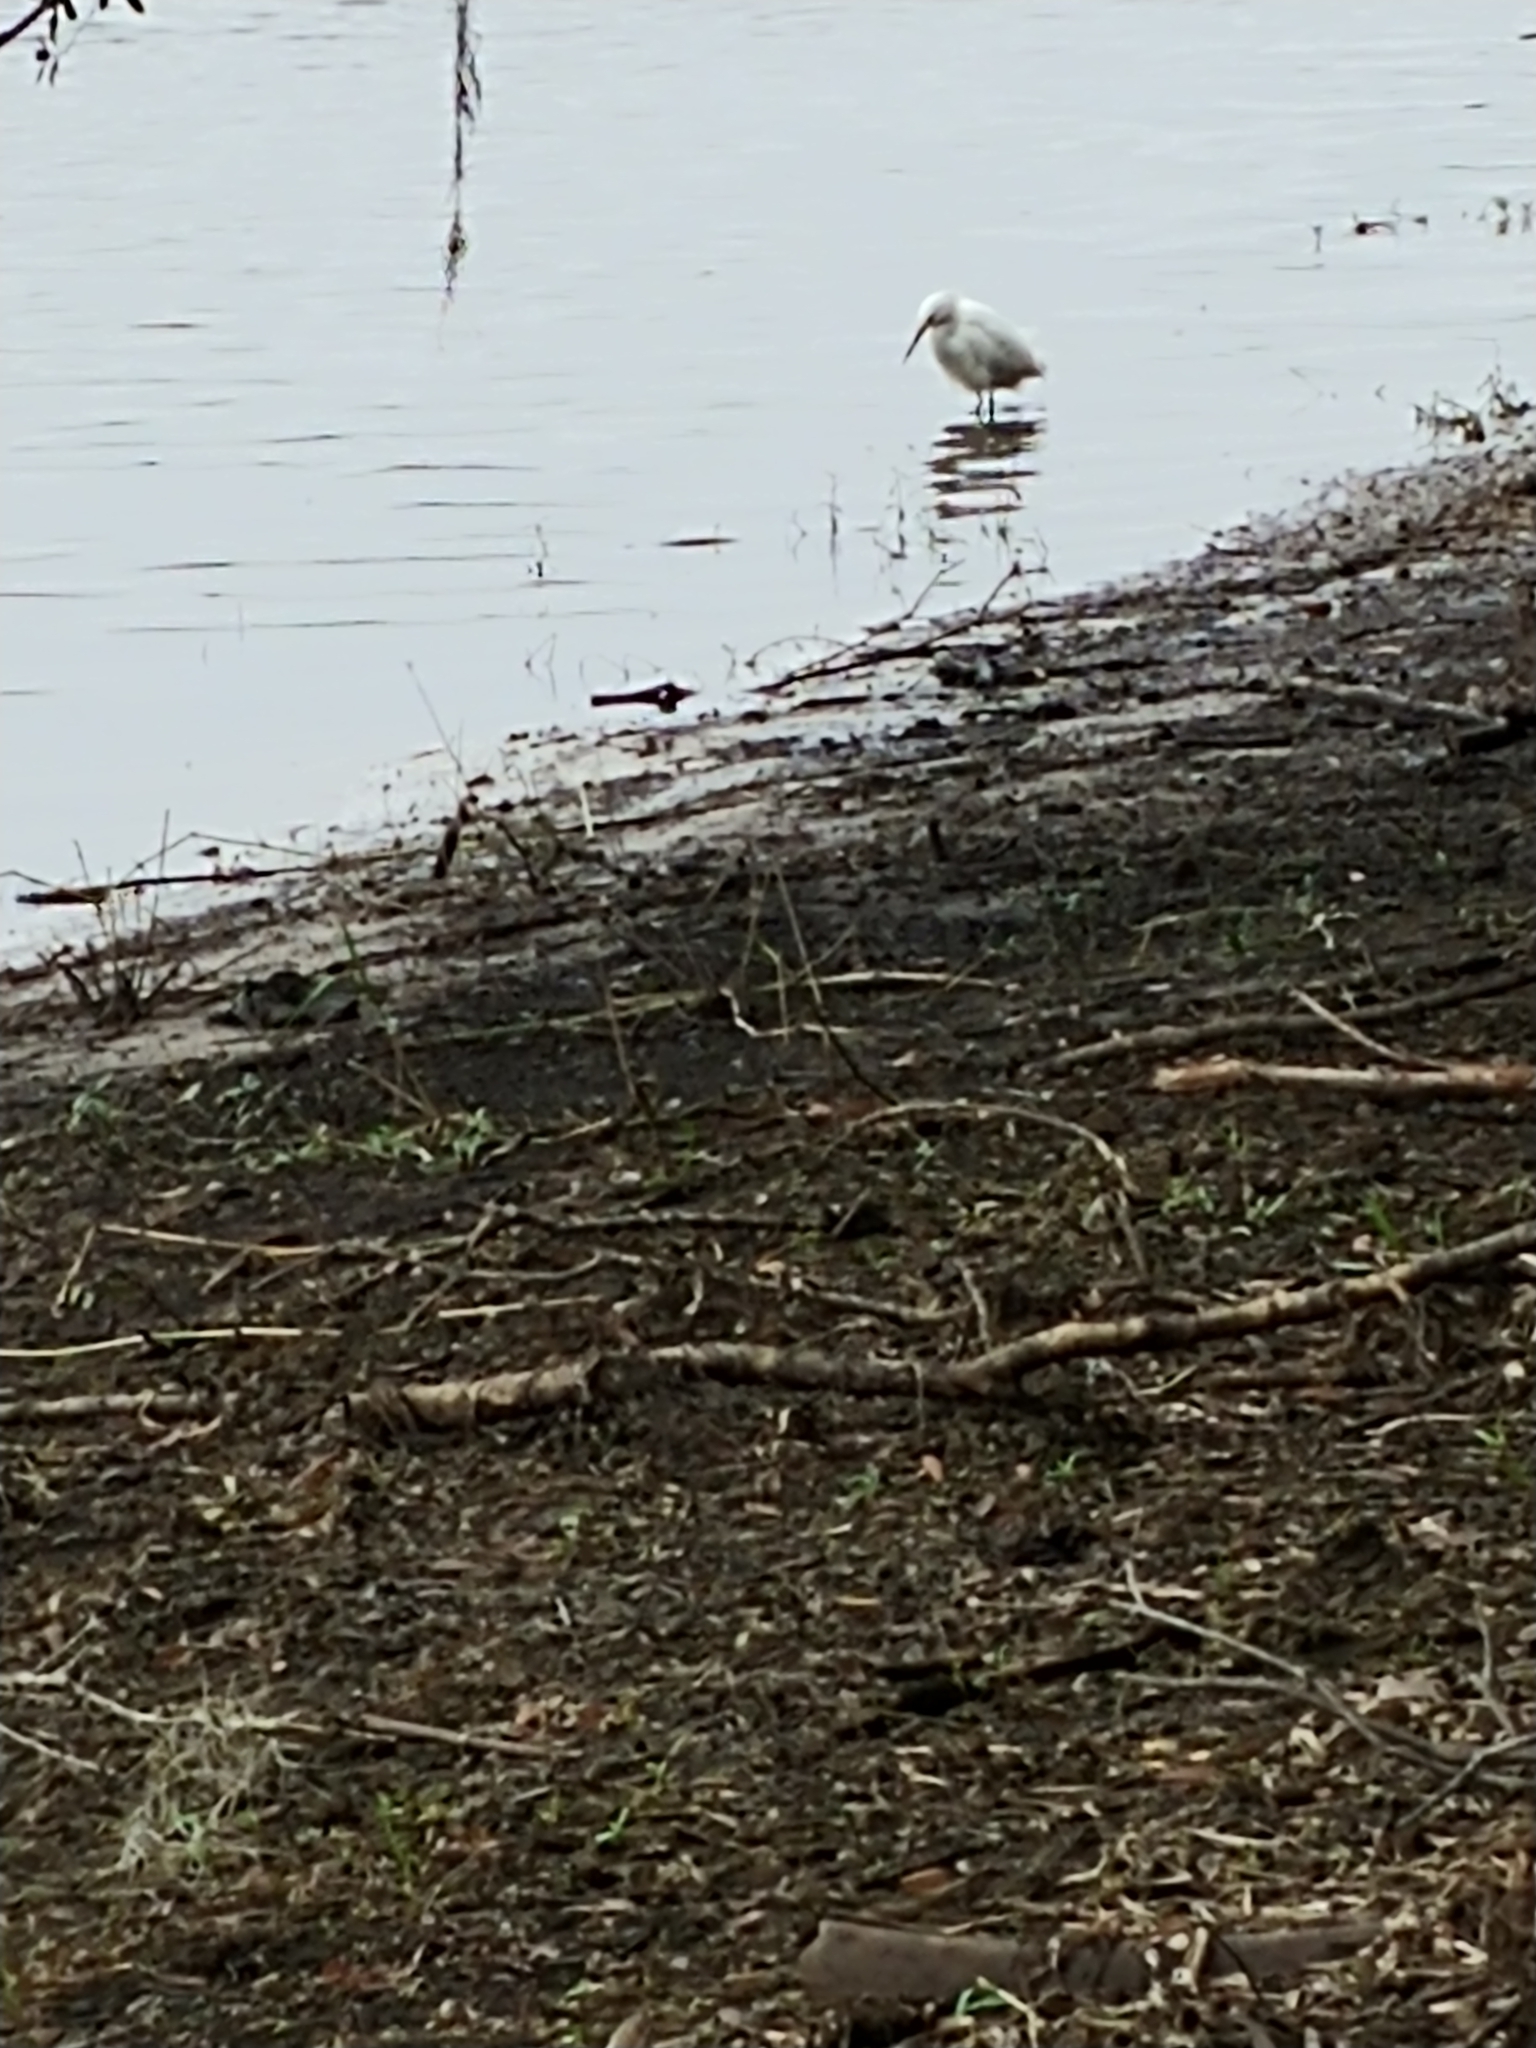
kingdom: Animalia
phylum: Chordata
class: Aves
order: Pelecaniformes
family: Ardeidae
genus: Egretta
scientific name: Egretta thula
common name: Snowy egret
